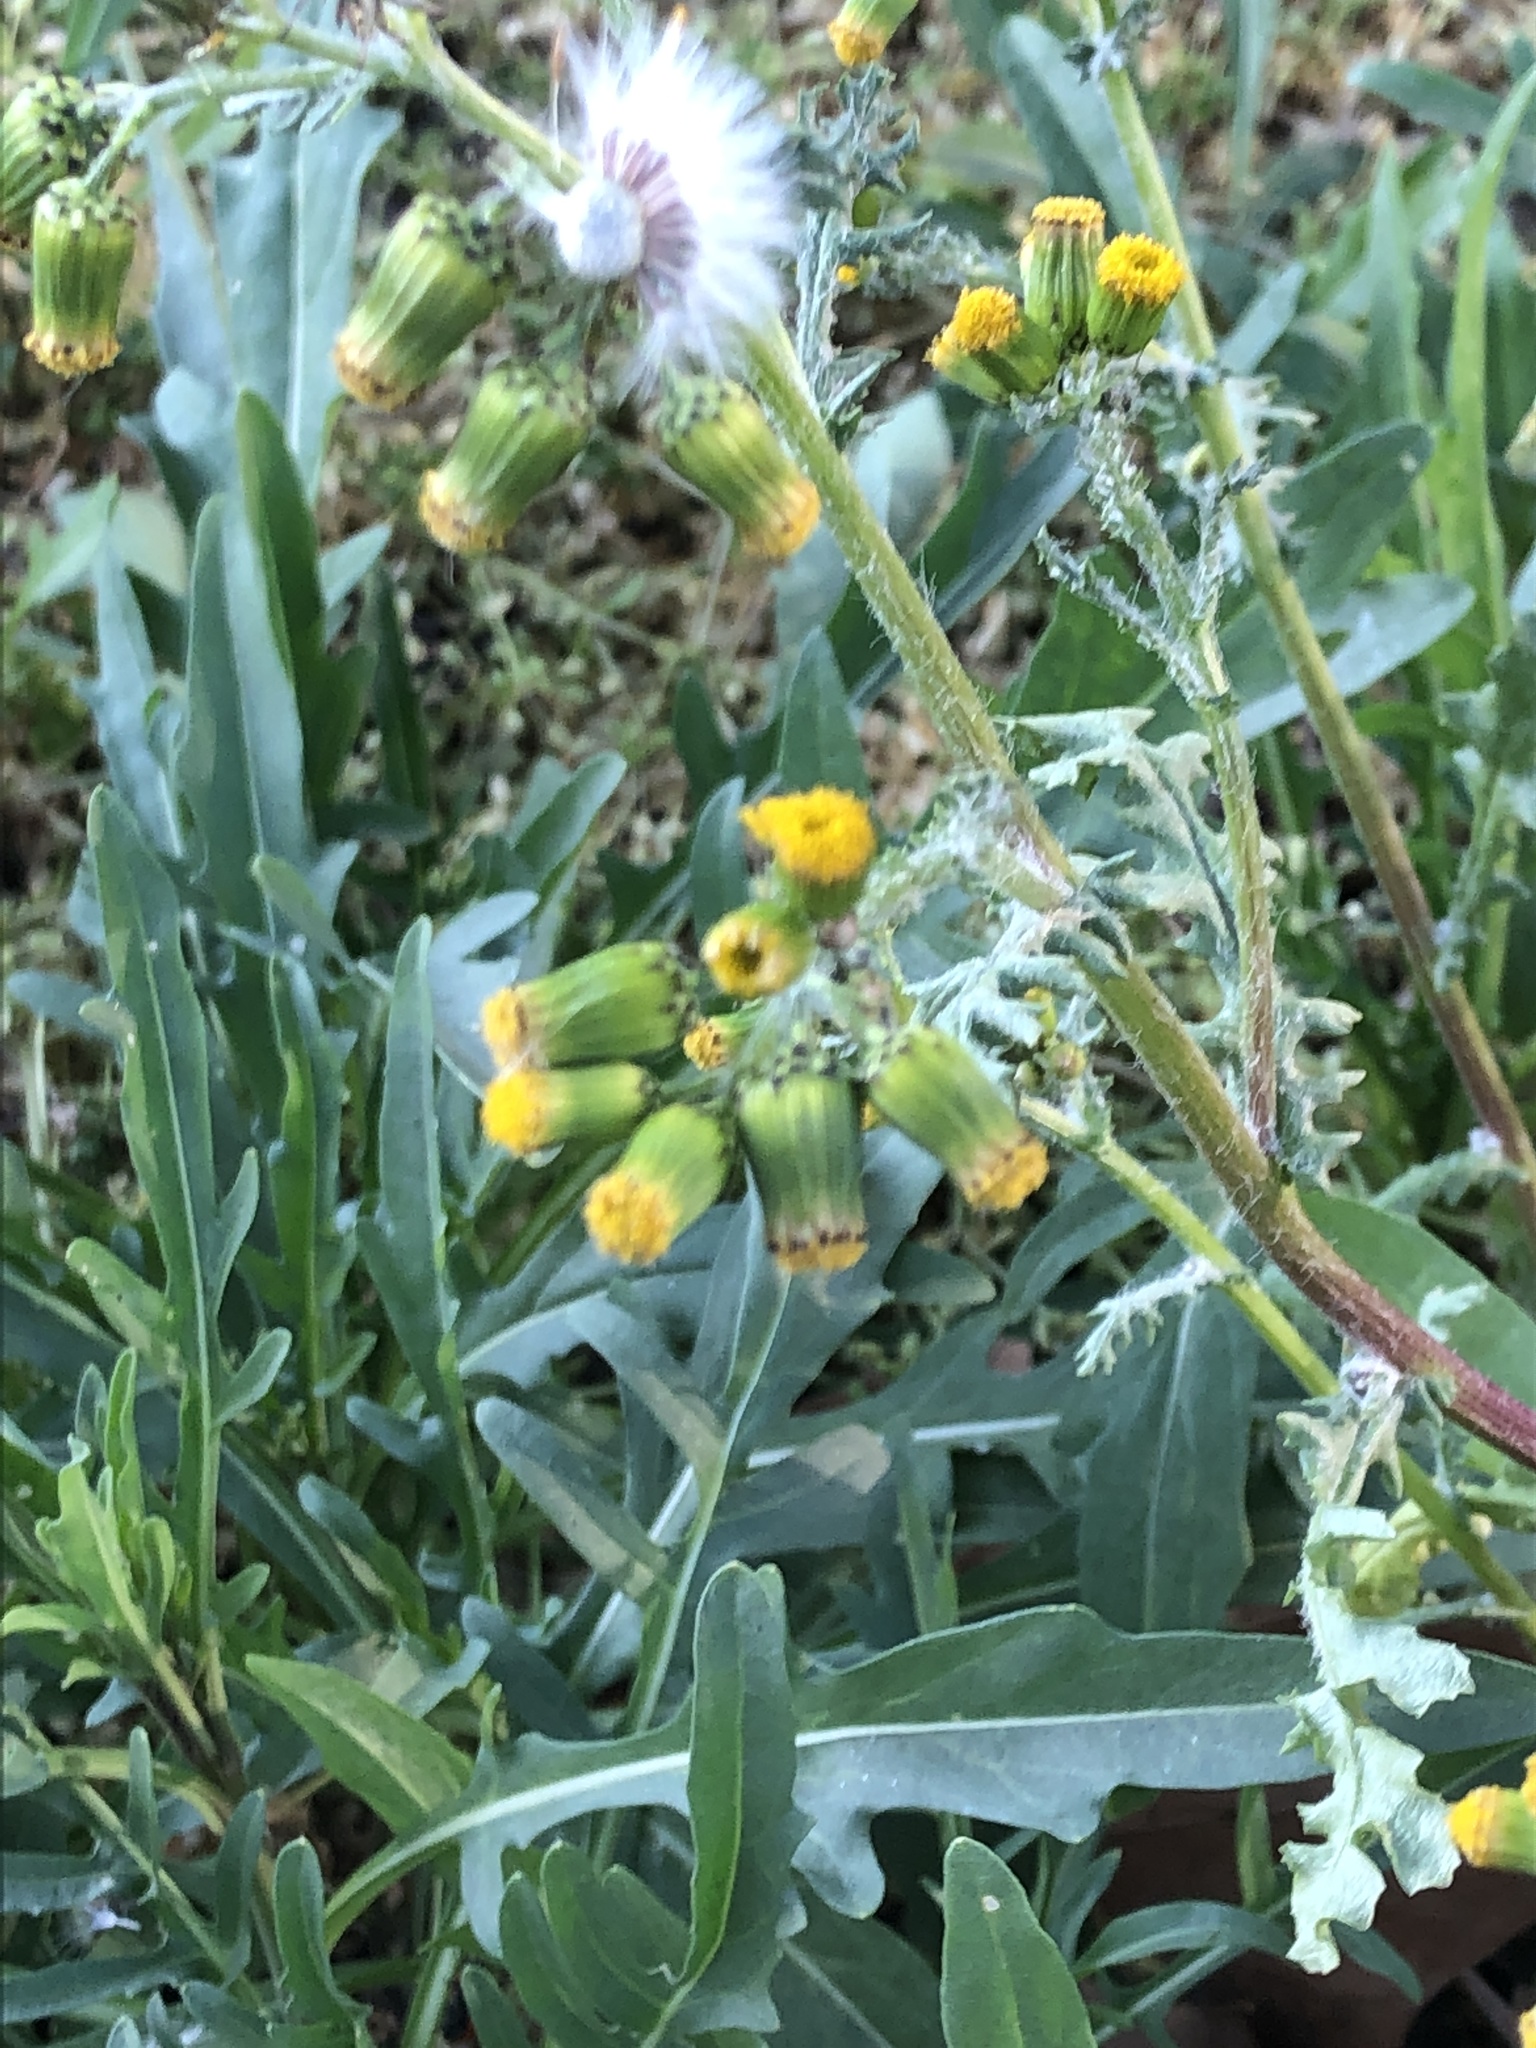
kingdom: Plantae
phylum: Tracheophyta
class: Magnoliopsida
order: Asterales
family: Asteraceae
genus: Senecio
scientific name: Senecio vulgaris
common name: Old-man-in-the-spring
